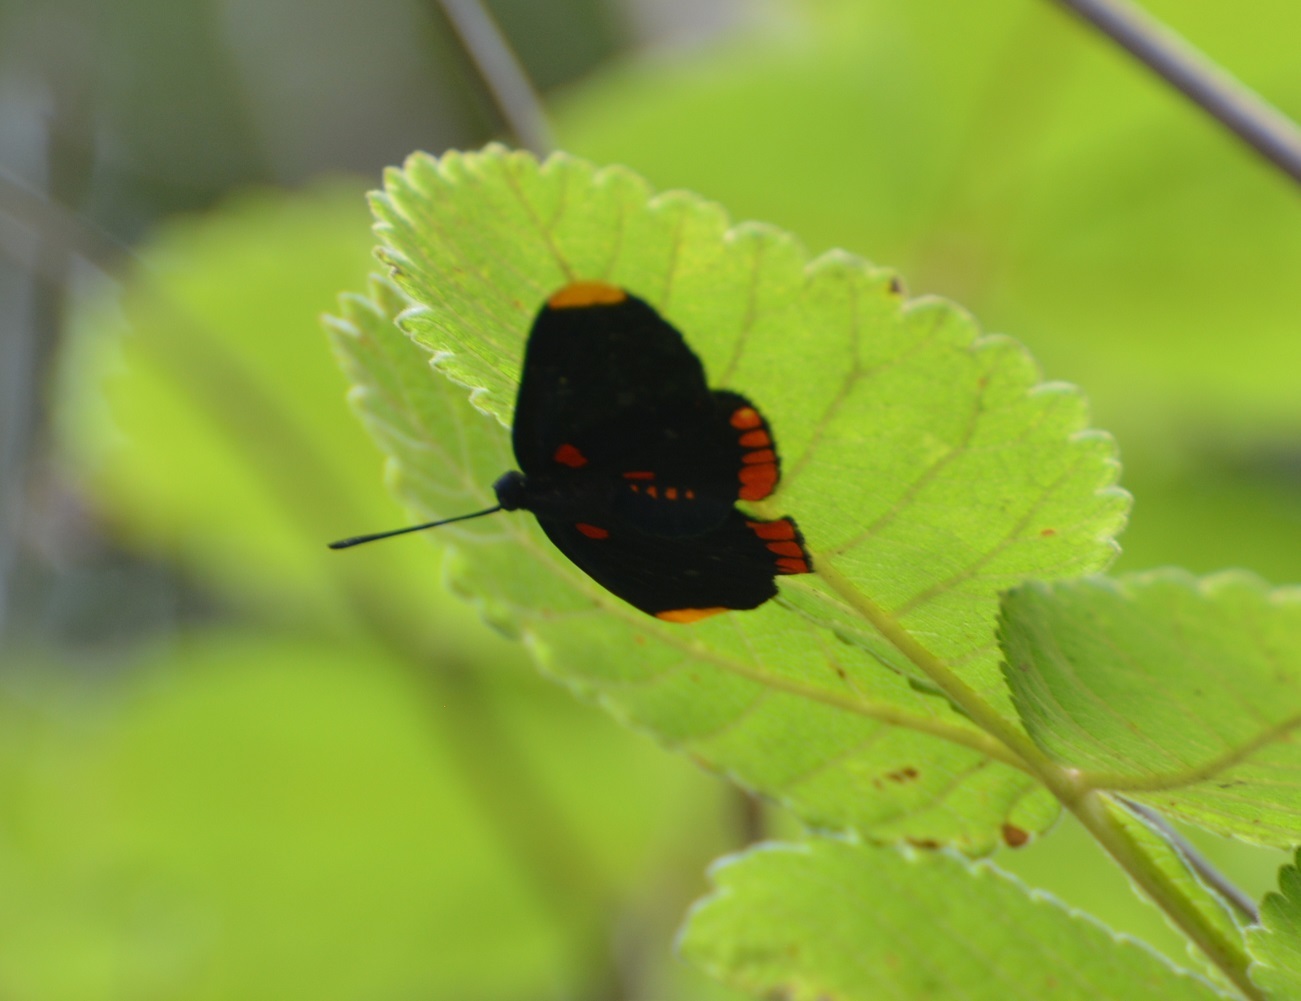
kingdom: Animalia
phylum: Arthropoda
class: Insecta
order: Lepidoptera
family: Lycaenidae
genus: Melanis
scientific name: Melanis pixe
